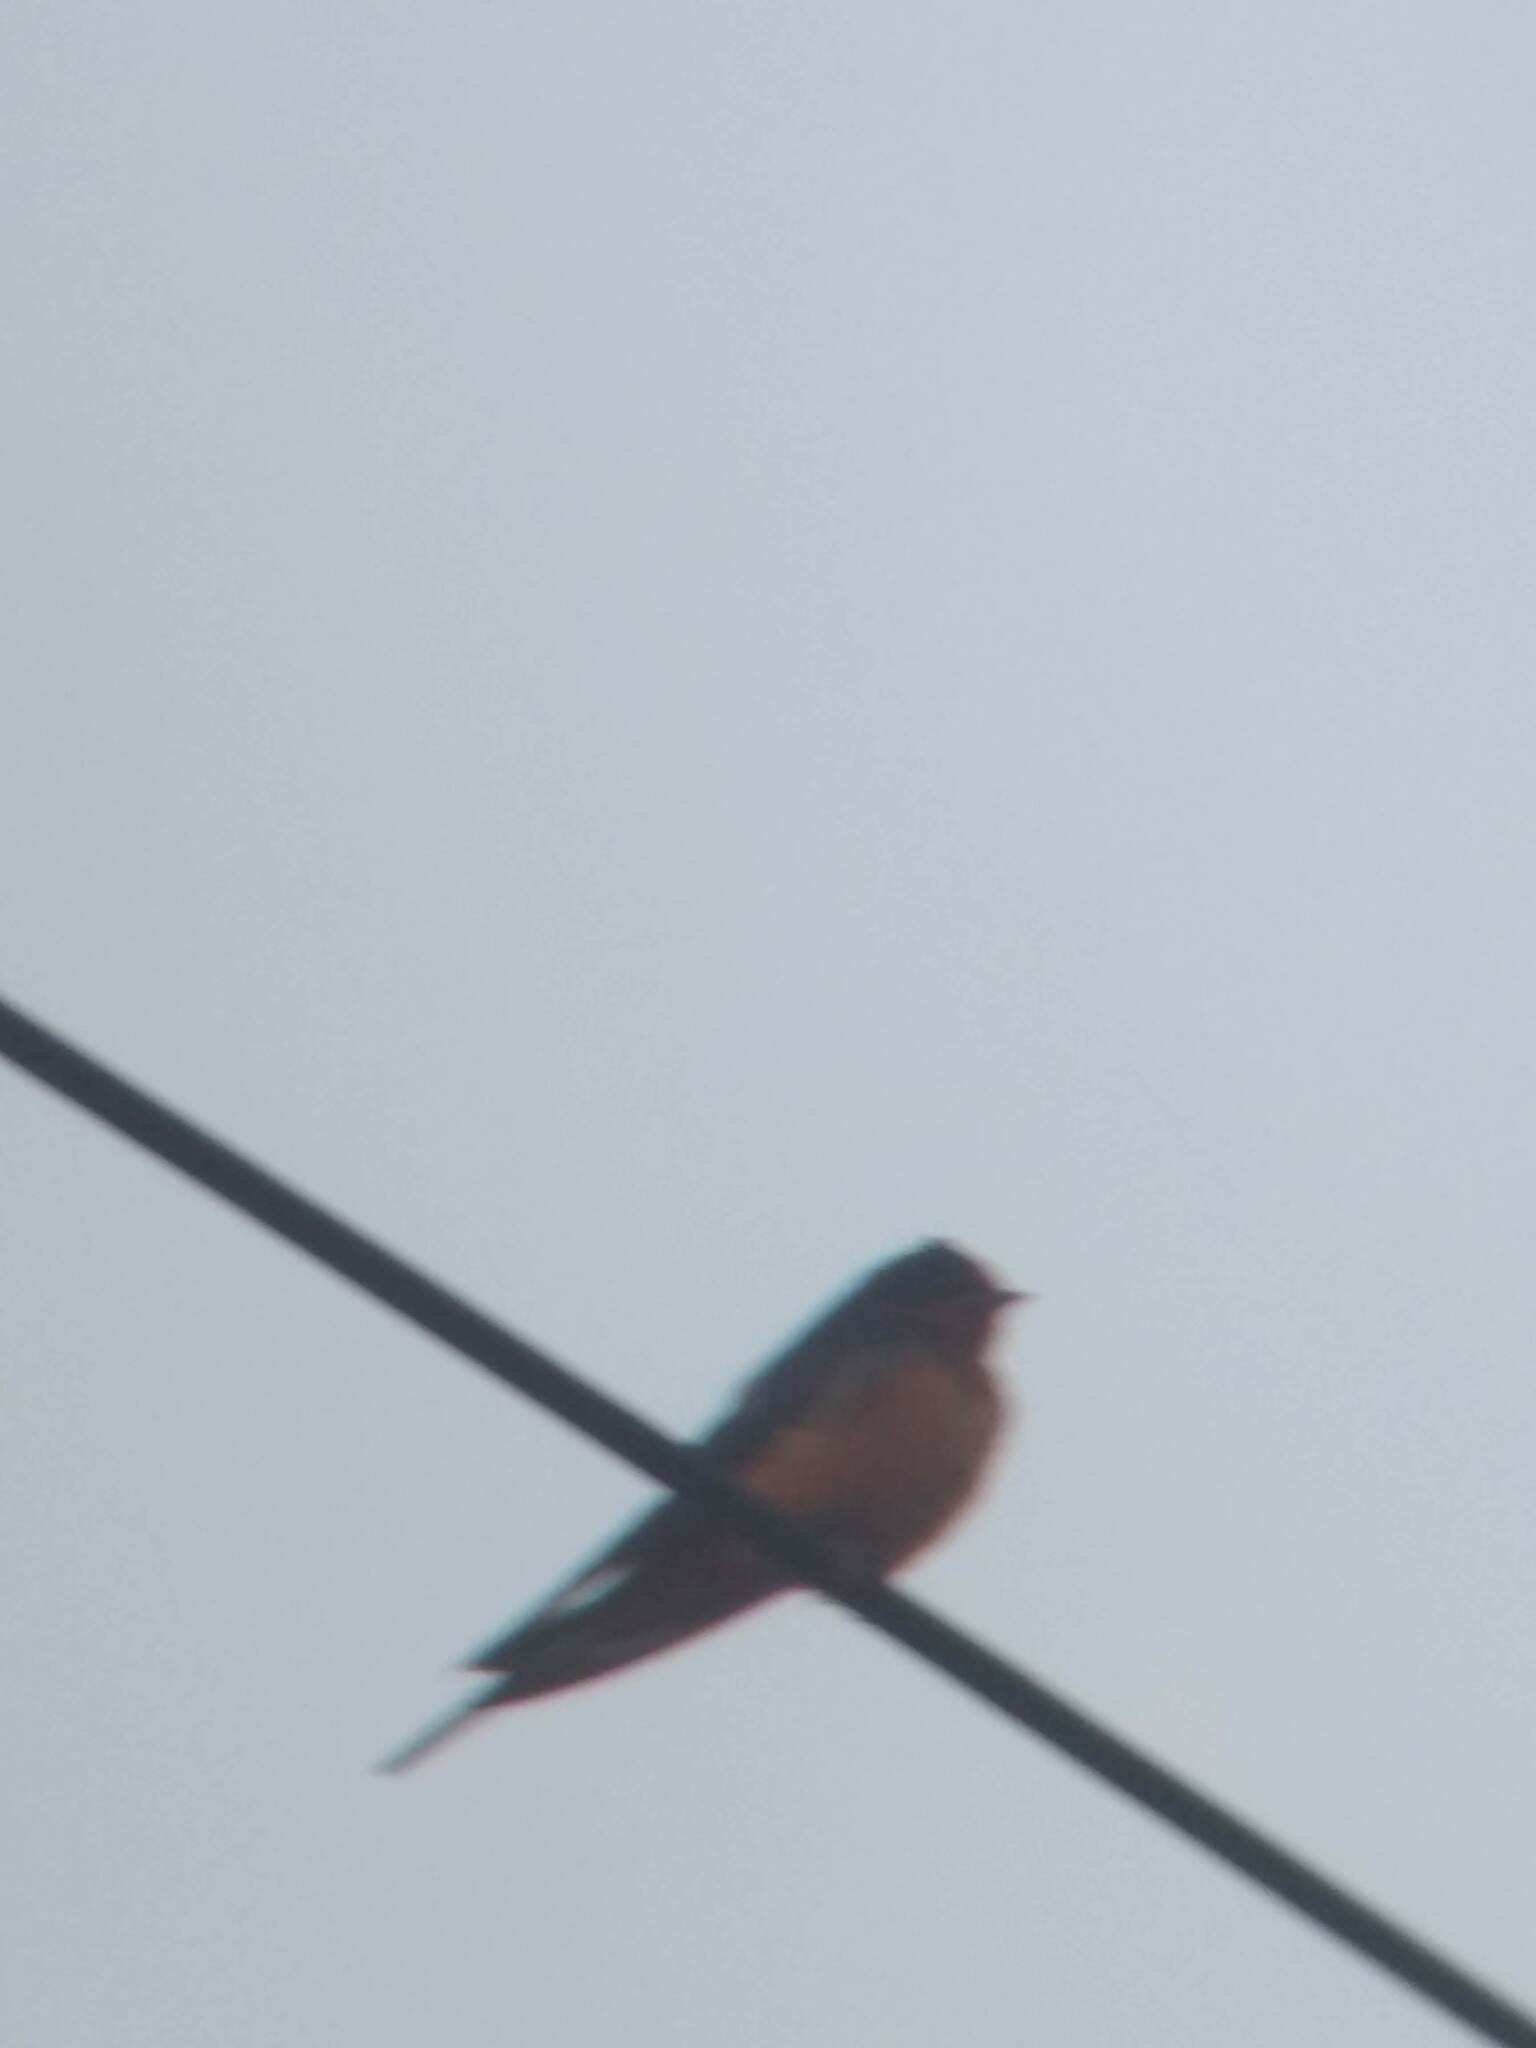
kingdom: Animalia
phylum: Chordata
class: Aves
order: Passeriformes
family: Hirundinidae
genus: Hirundo
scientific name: Hirundo rustica
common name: Barn swallow
